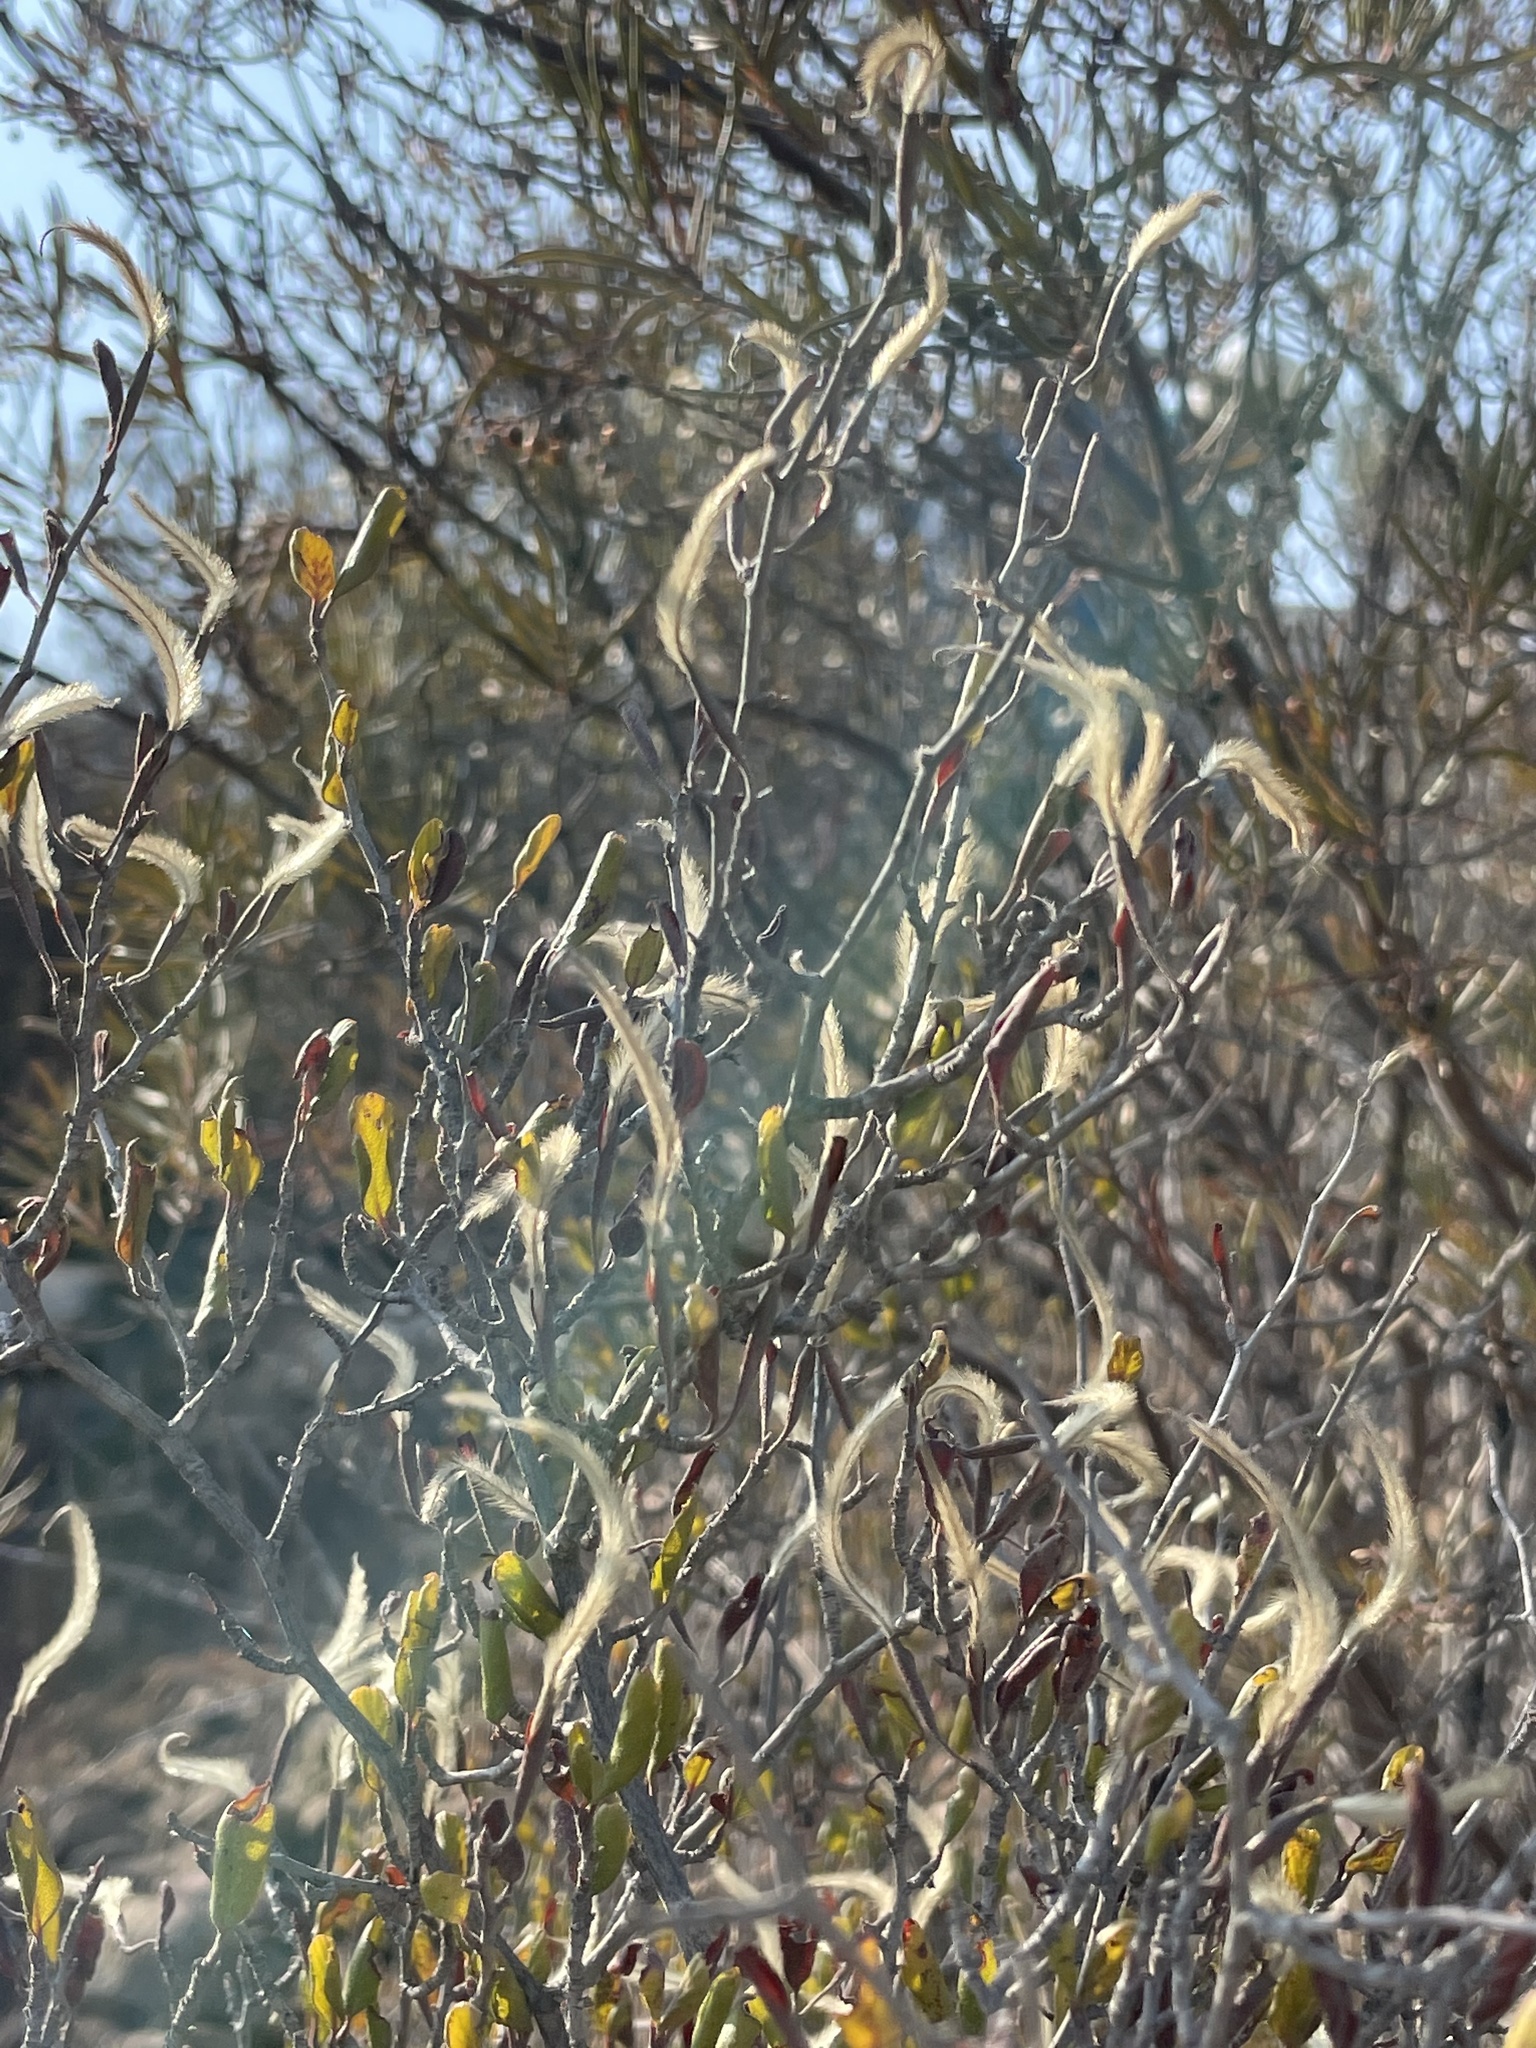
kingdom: Plantae
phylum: Tracheophyta
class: Magnoliopsida
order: Rosales
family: Rosaceae
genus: Cercocarpus
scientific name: Cercocarpus montanus
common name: Alder-leaf cercocarpus
